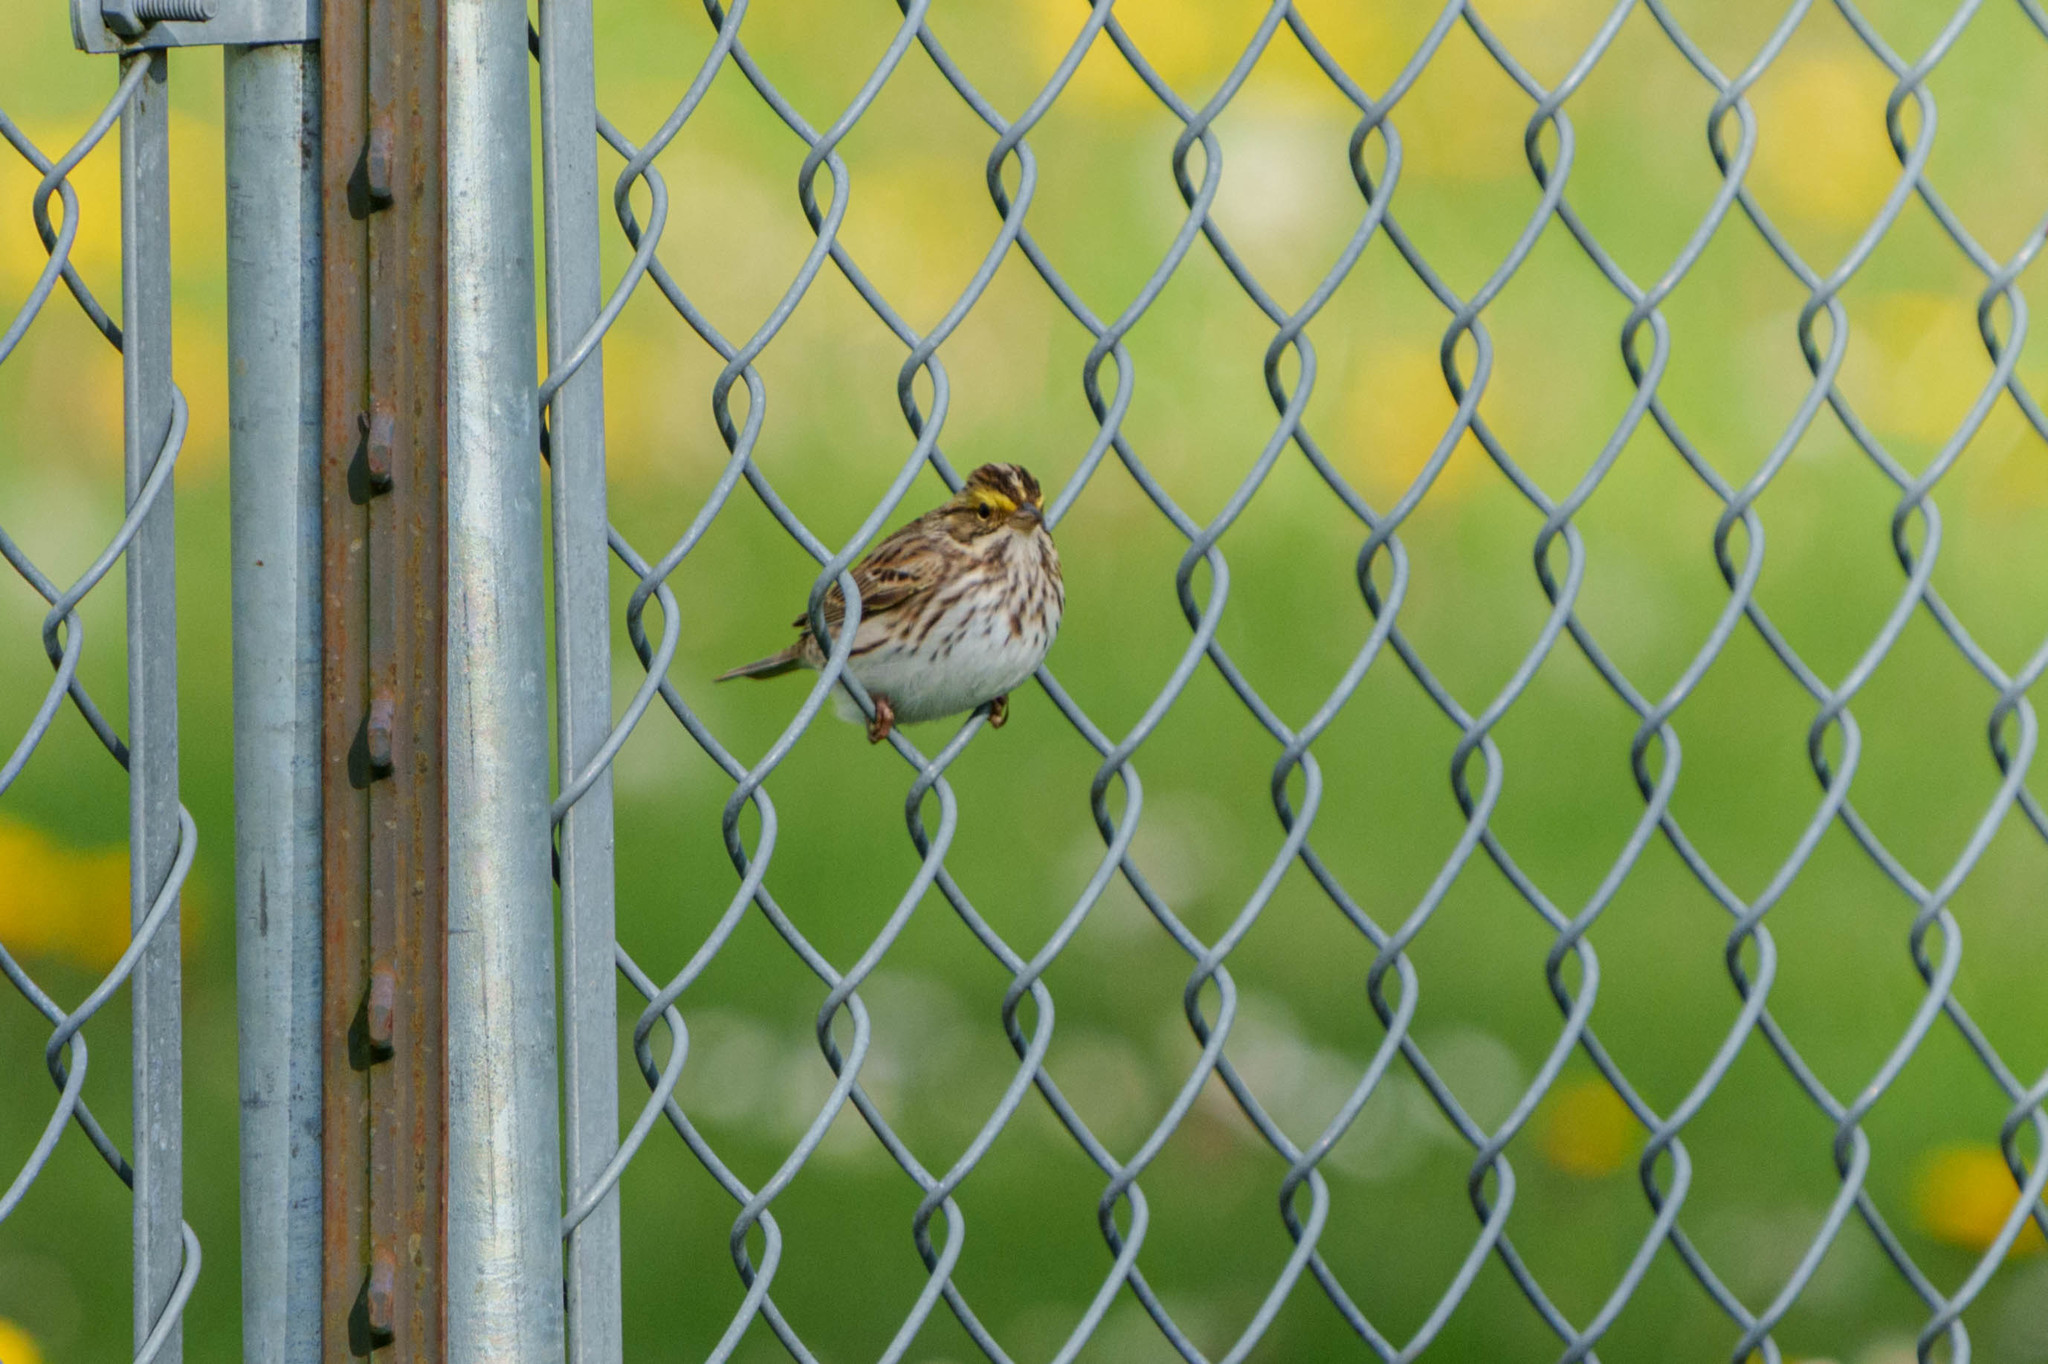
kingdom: Animalia
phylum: Chordata
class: Aves
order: Passeriformes
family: Passerellidae
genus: Passerculus
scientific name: Passerculus sandwichensis
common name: Savannah sparrow
